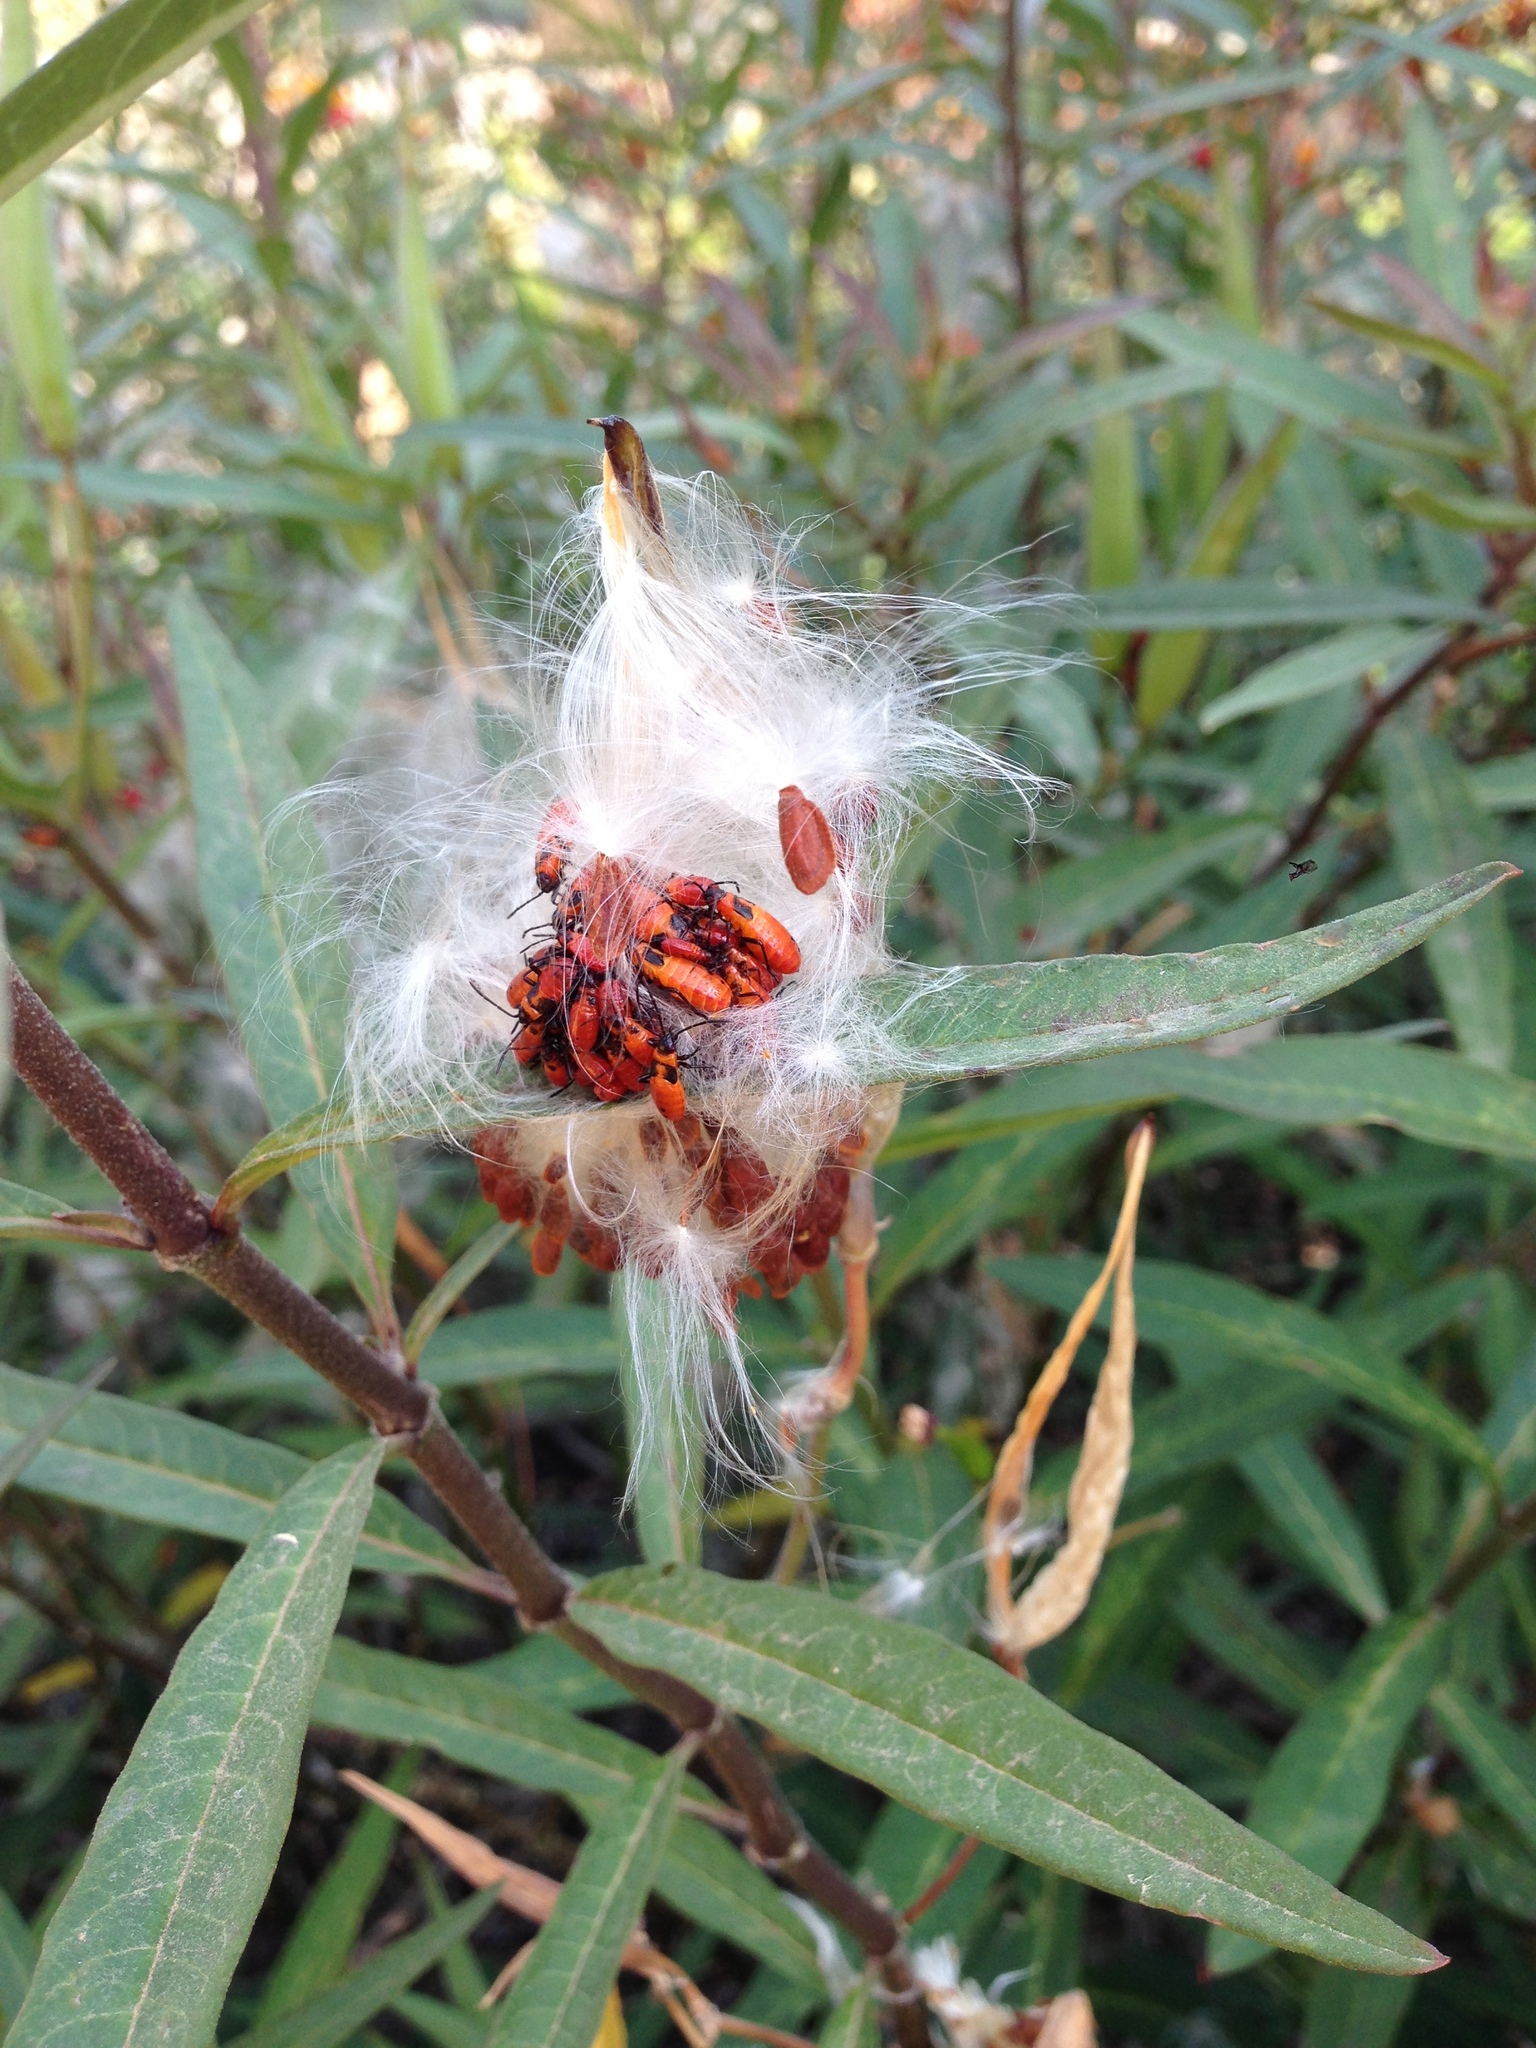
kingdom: Animalia
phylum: Arthropoda
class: Insecta
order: Hemiptera
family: Lygaeidae
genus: Oncopeltus
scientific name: Oncopeltus fasciatus
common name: Large milkweed bug
